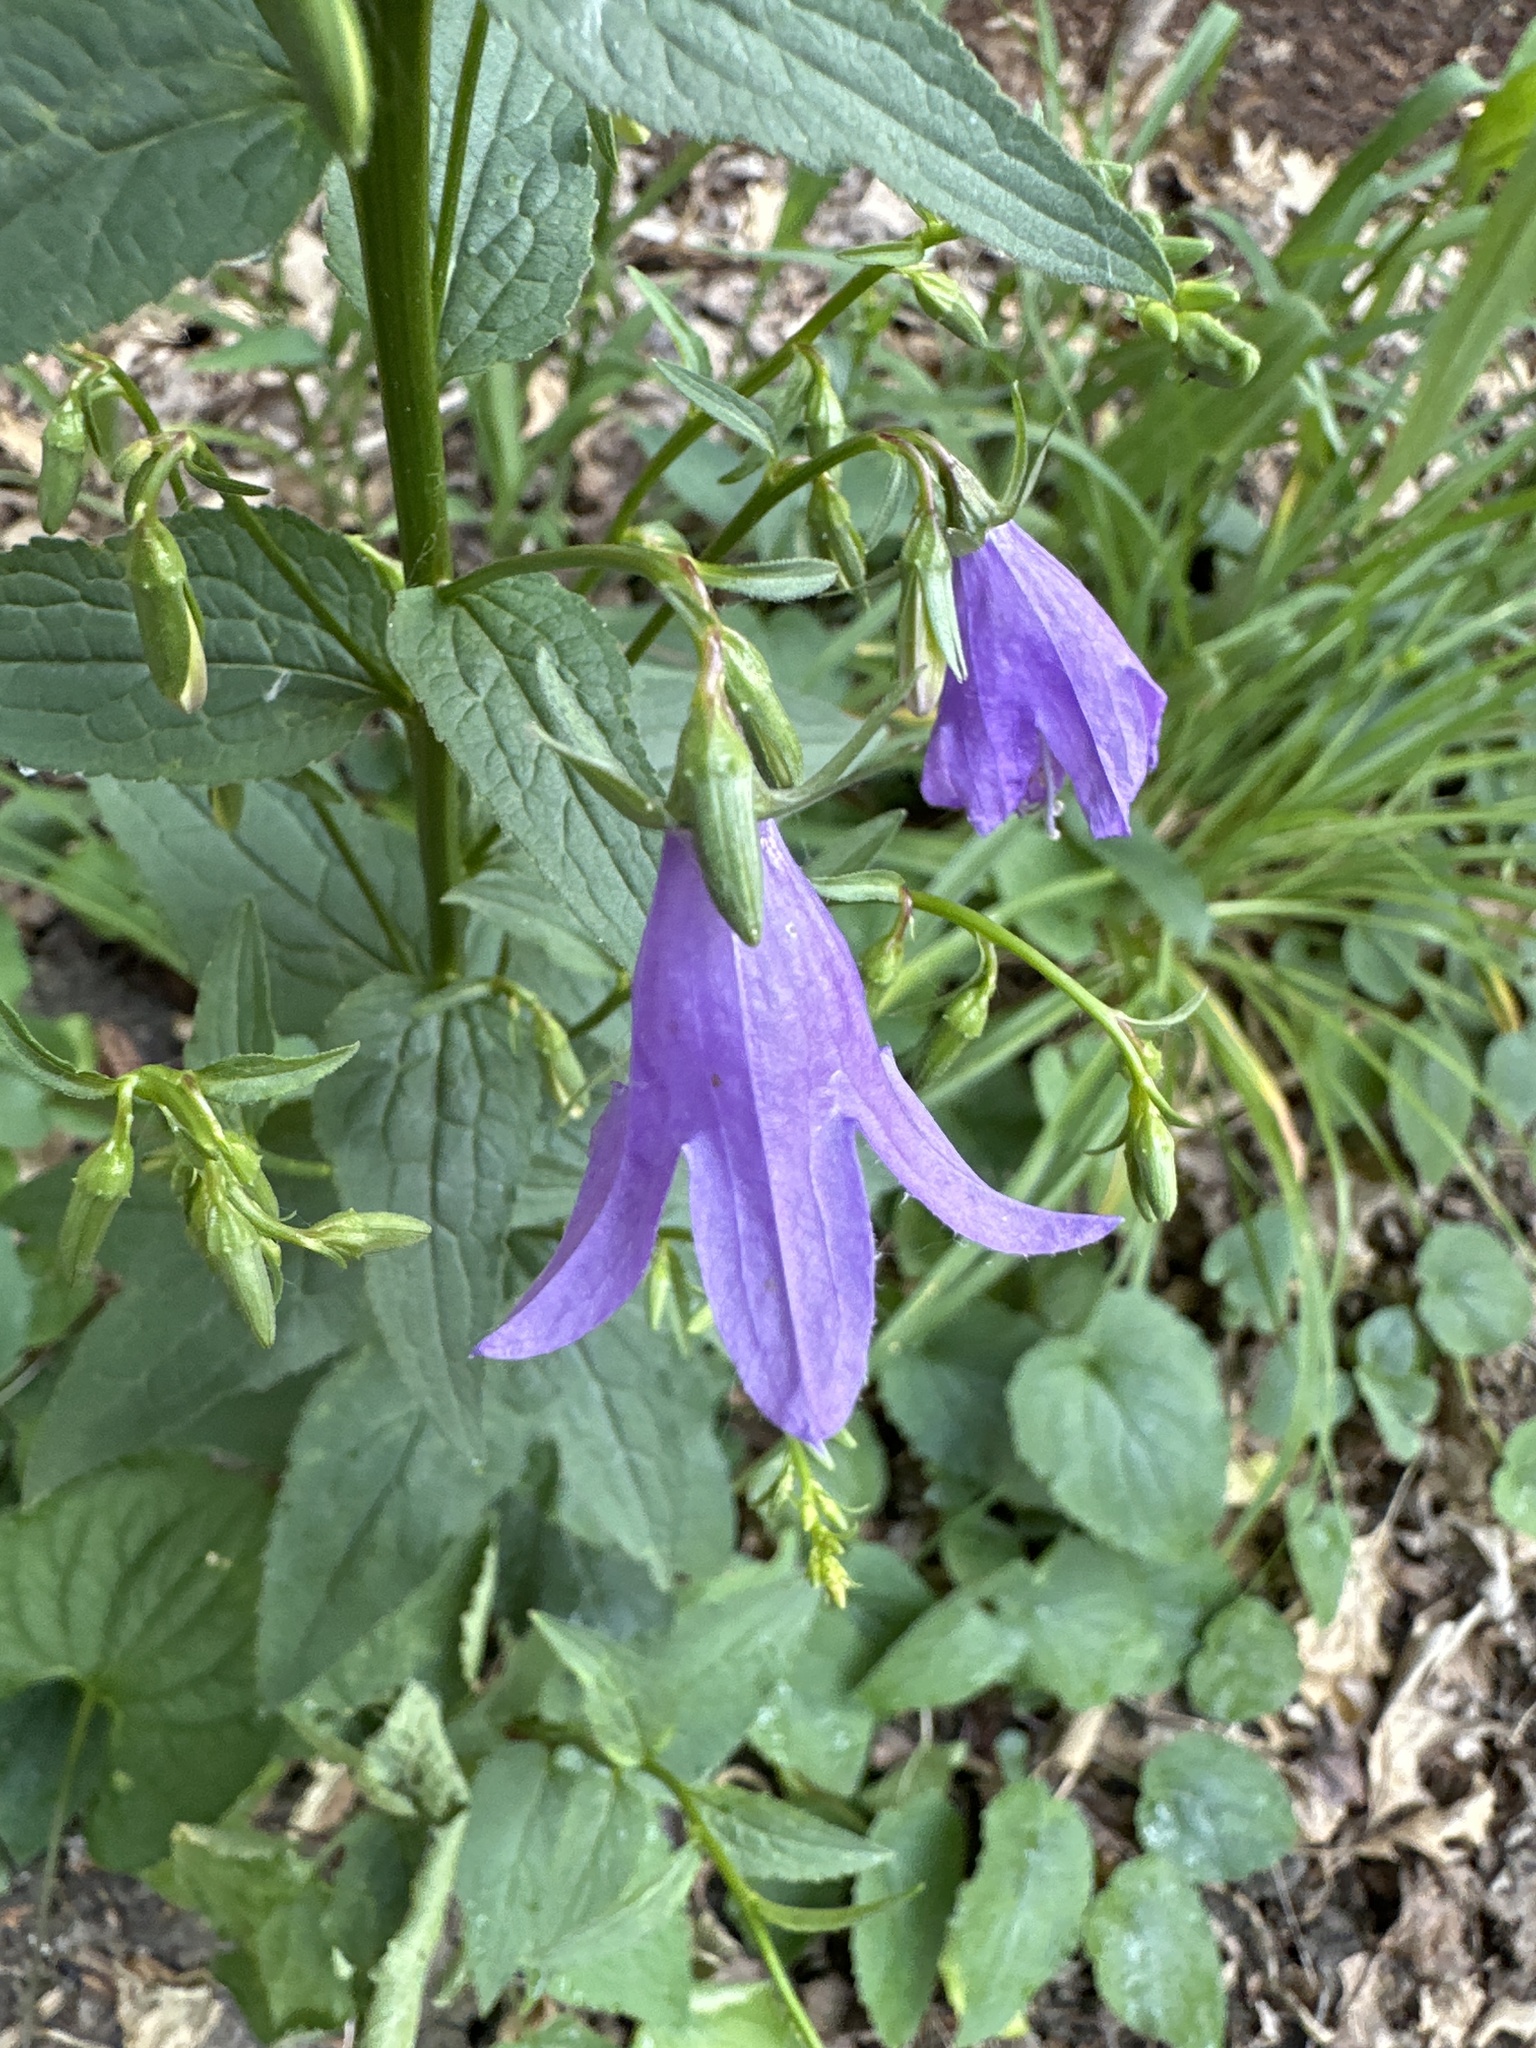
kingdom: Plantae
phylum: Tracheophyta
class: Magnoliopsida
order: Asterales
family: Campanulaceae
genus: Campanula
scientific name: Campanula rapunculoides
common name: Creeping bellflower
